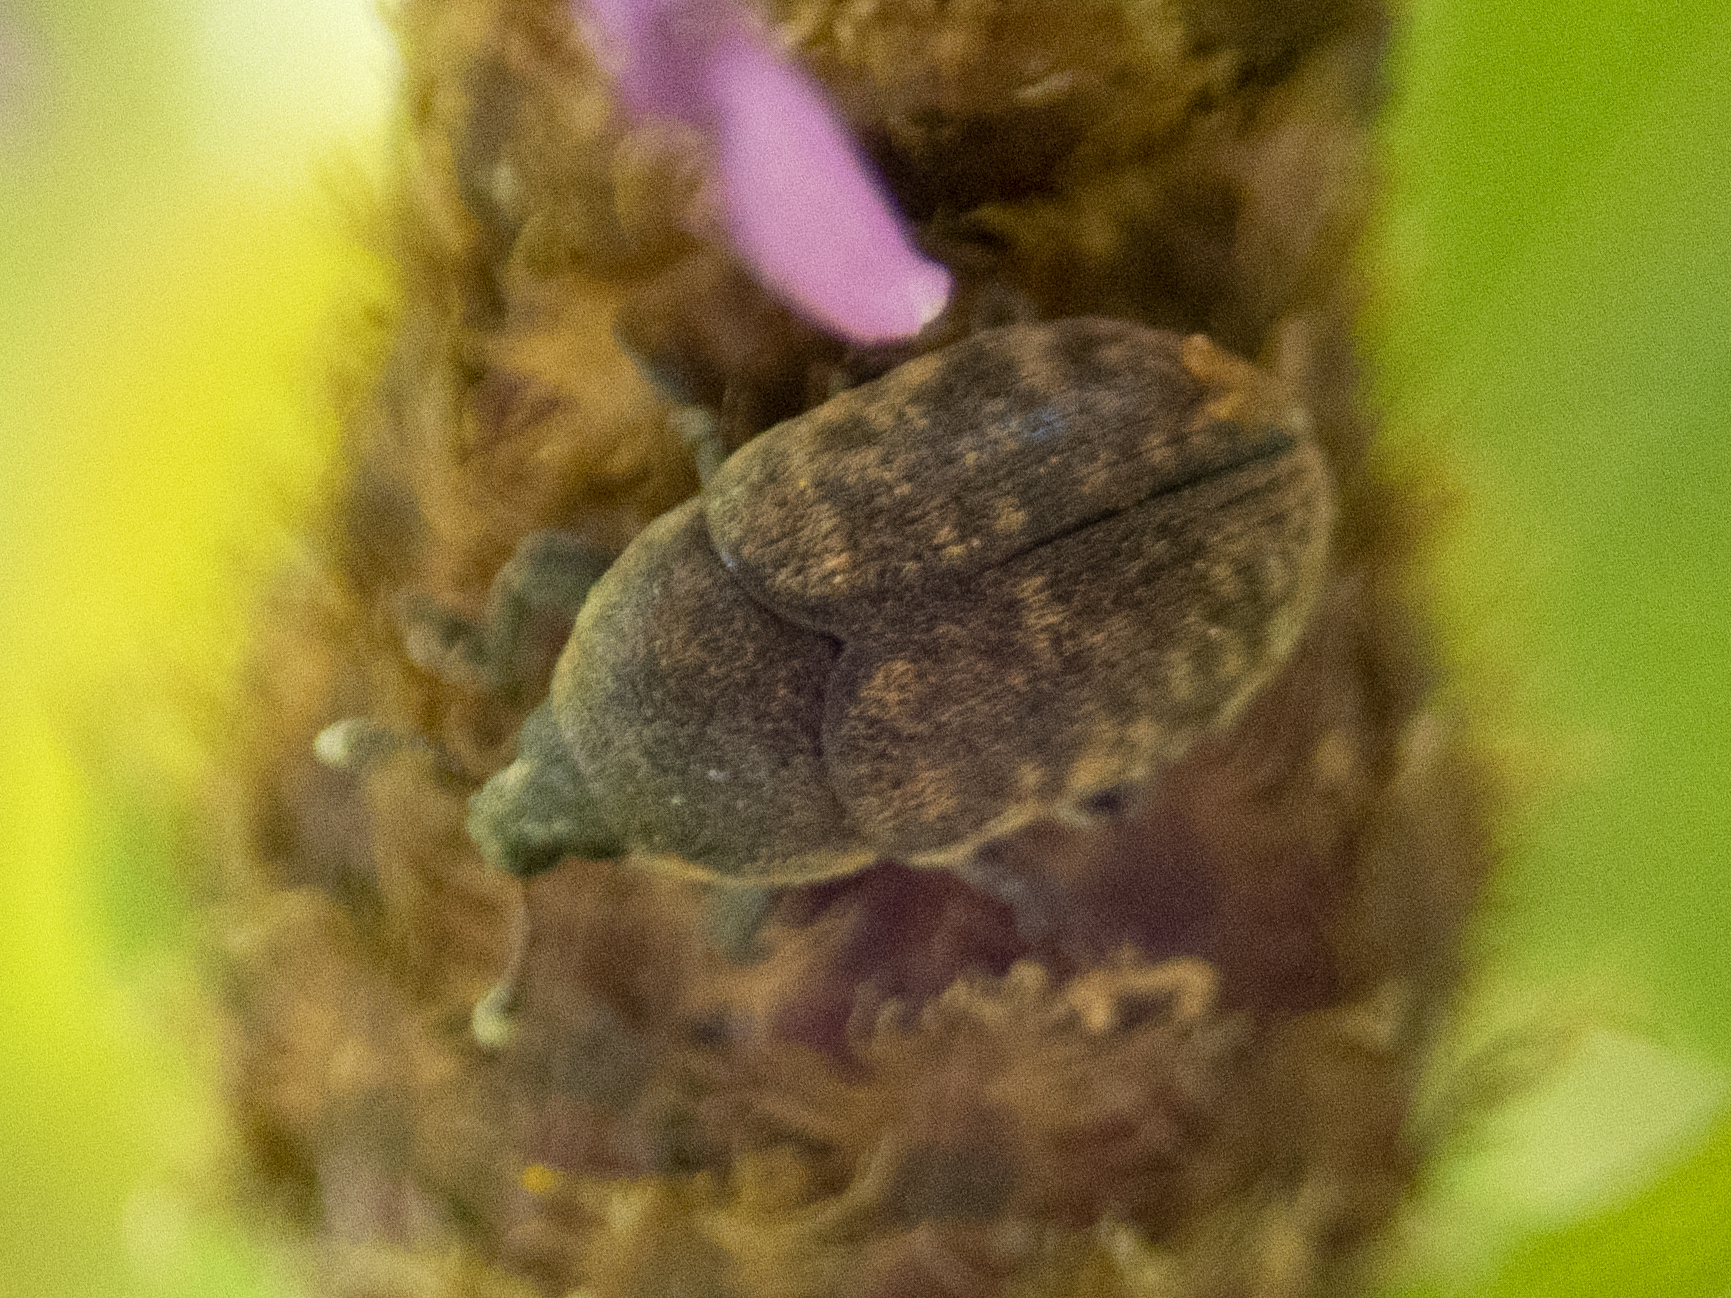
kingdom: Animalia
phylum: Arthropoda
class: Insecta
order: Coleoptera
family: Curculionidae
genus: Larinus
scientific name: Larinus obtusus
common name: Weevil
